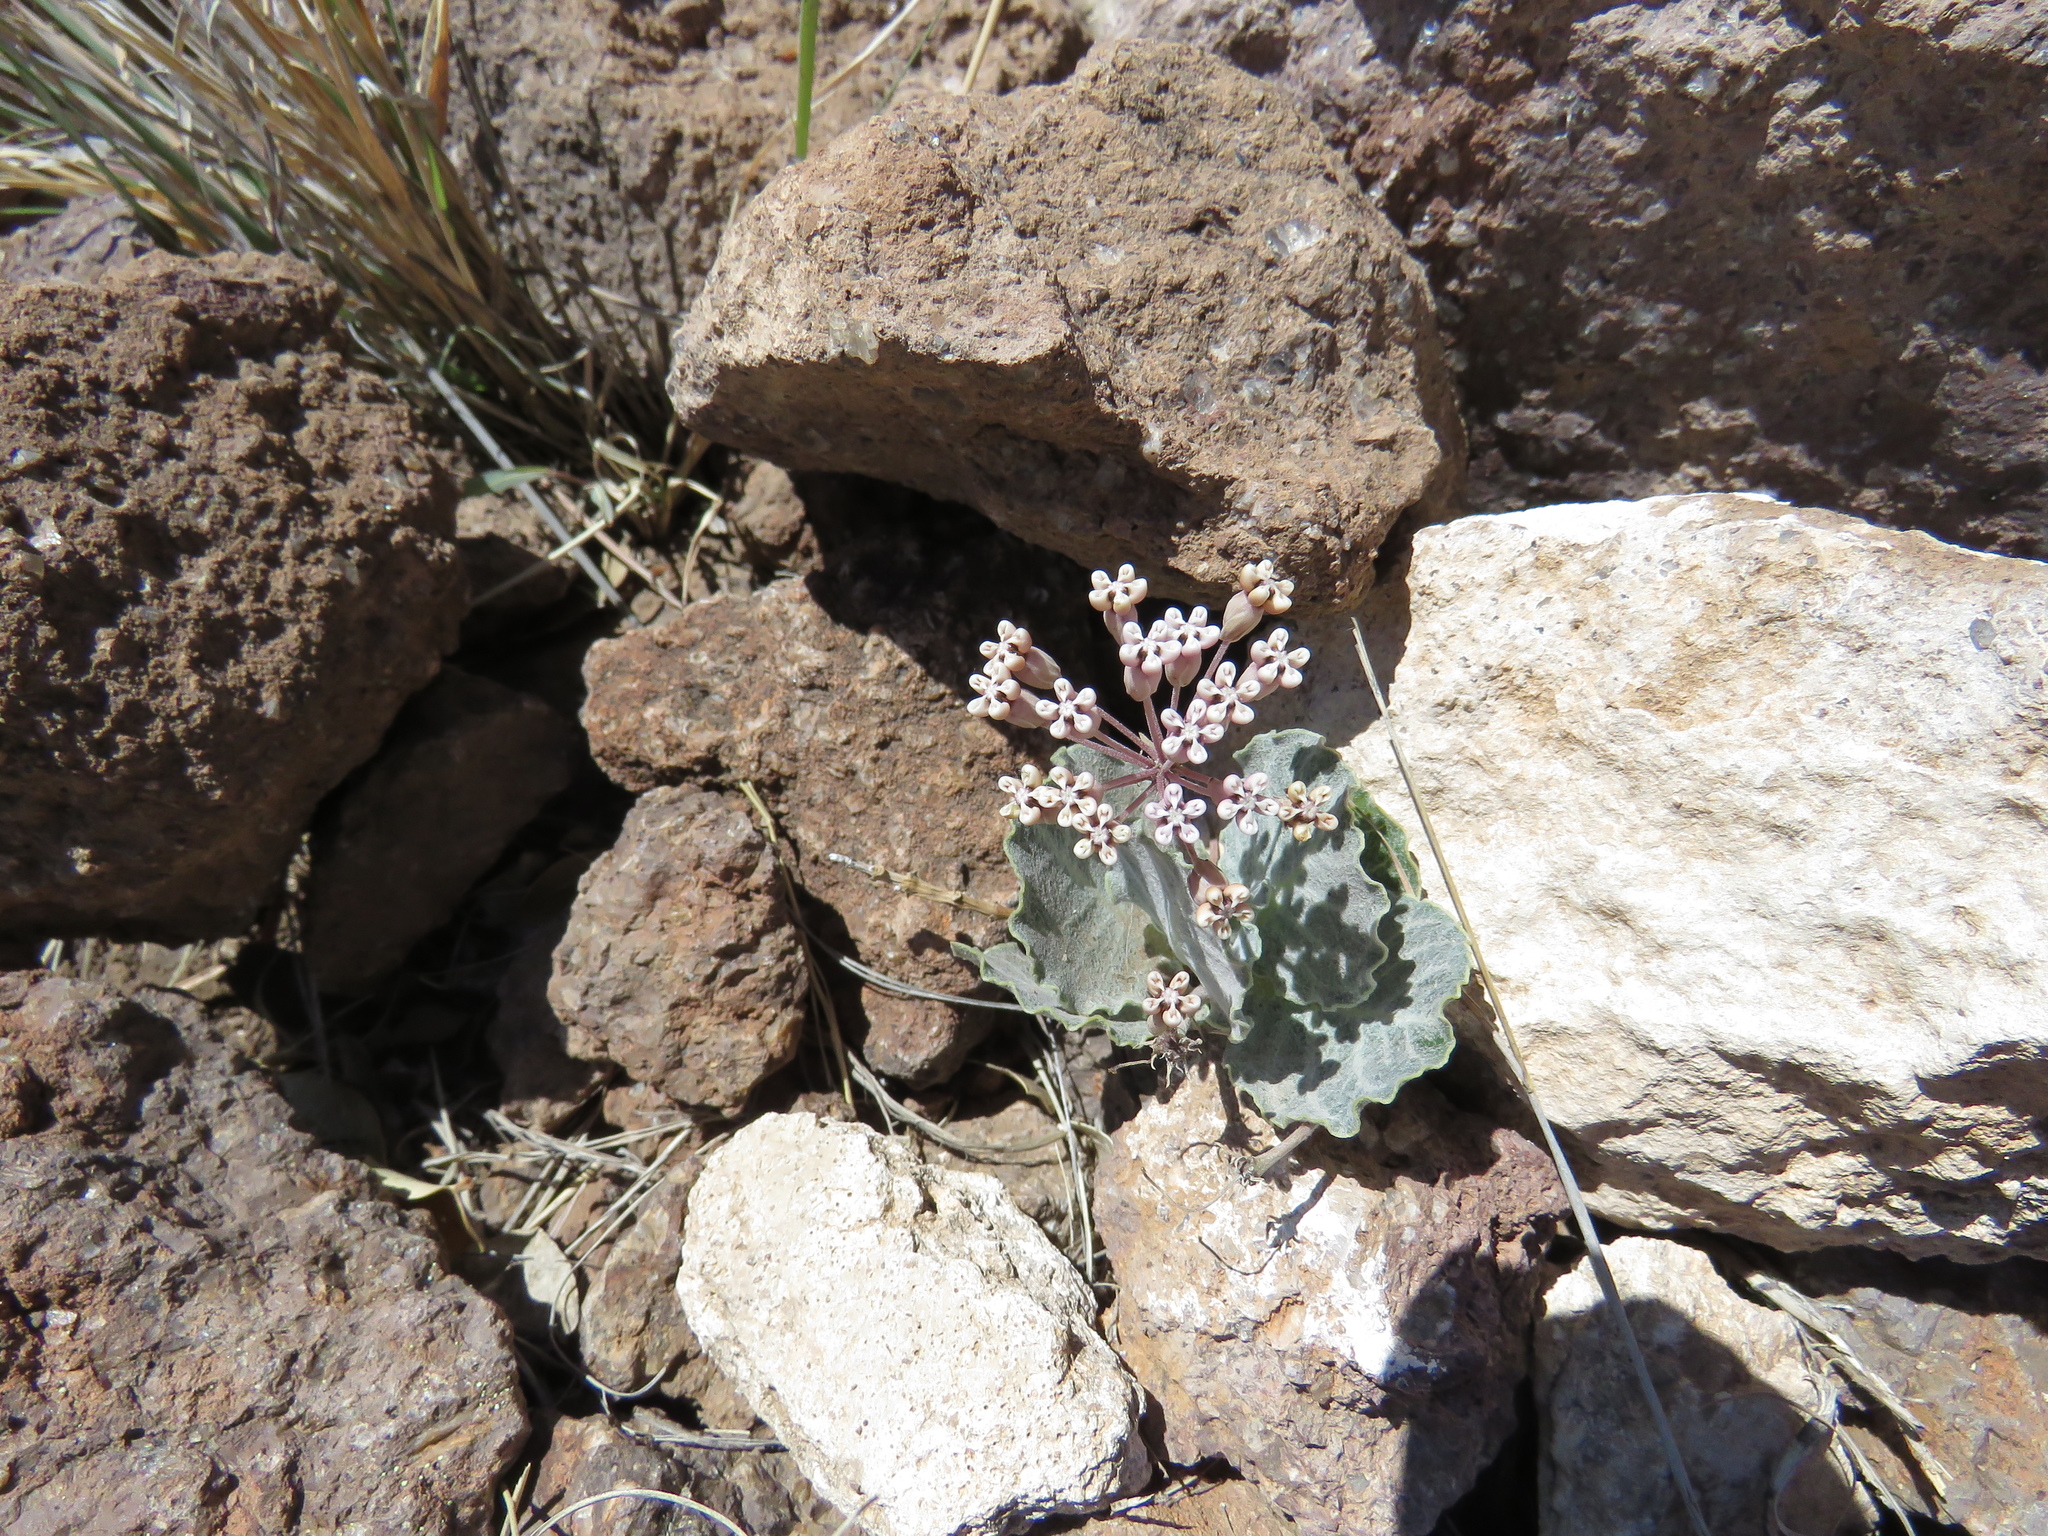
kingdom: Plantae
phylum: Tracheophyta
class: Magnoliopsida
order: Gentianales
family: Apocynaceae
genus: Asclepias
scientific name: Asclepias nummularia
